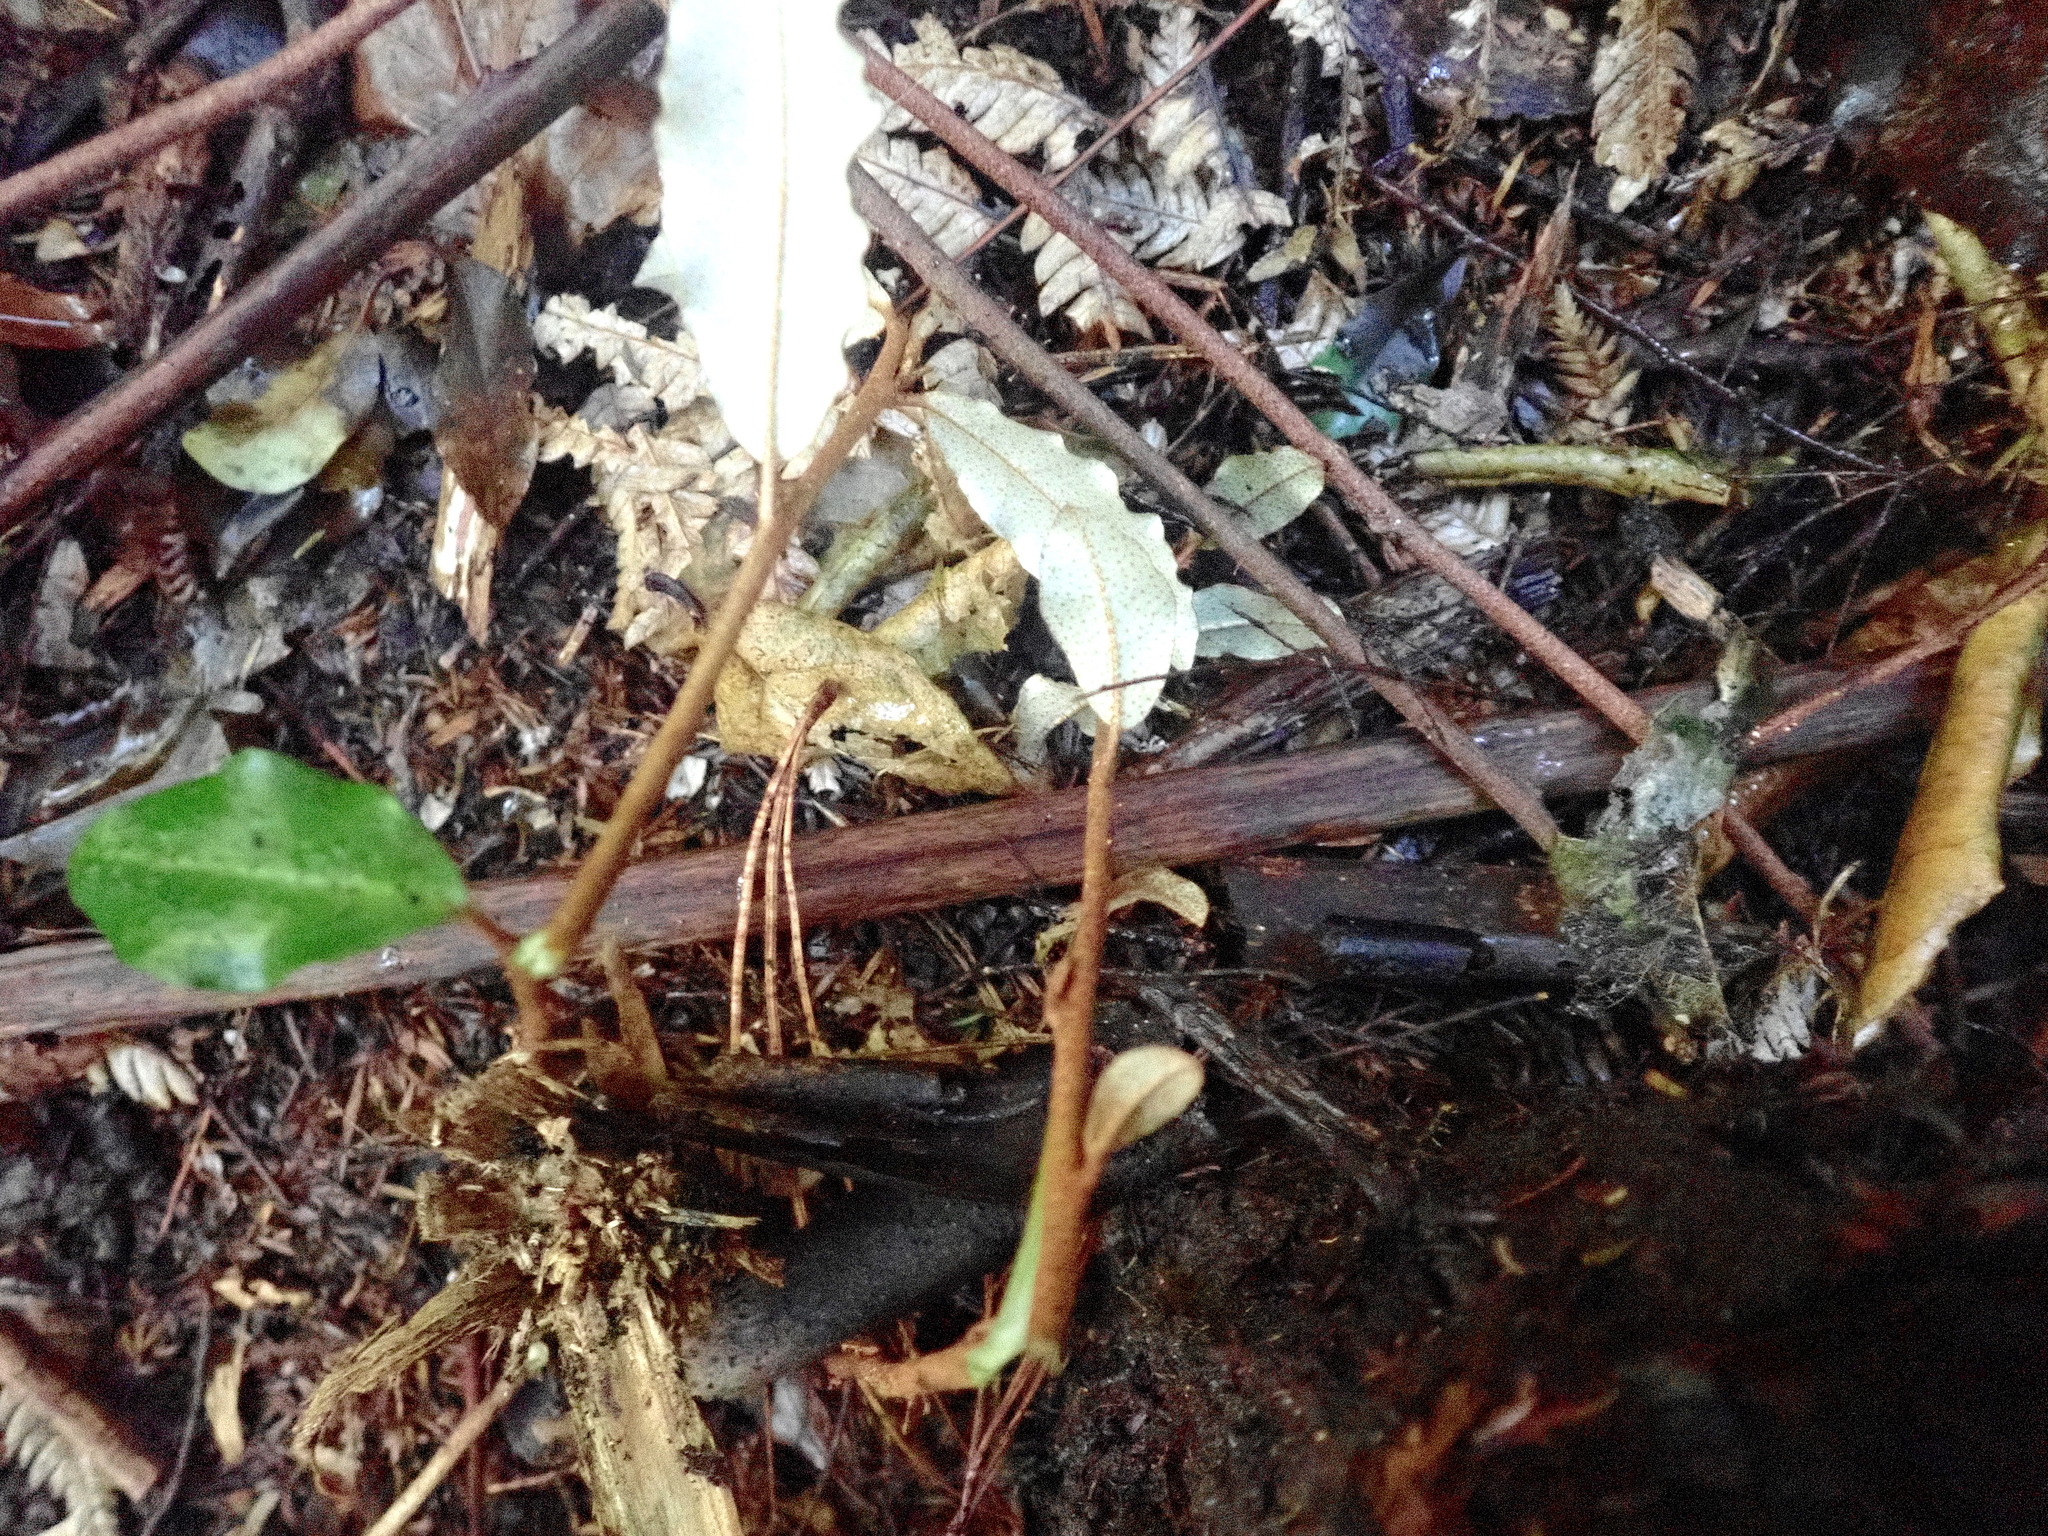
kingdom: Plantae
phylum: Tracheophyta
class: Magnoliopsida
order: Rosales
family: Elaeagnaceae
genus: Elaeagnus
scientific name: Elaeagnus reflexa
